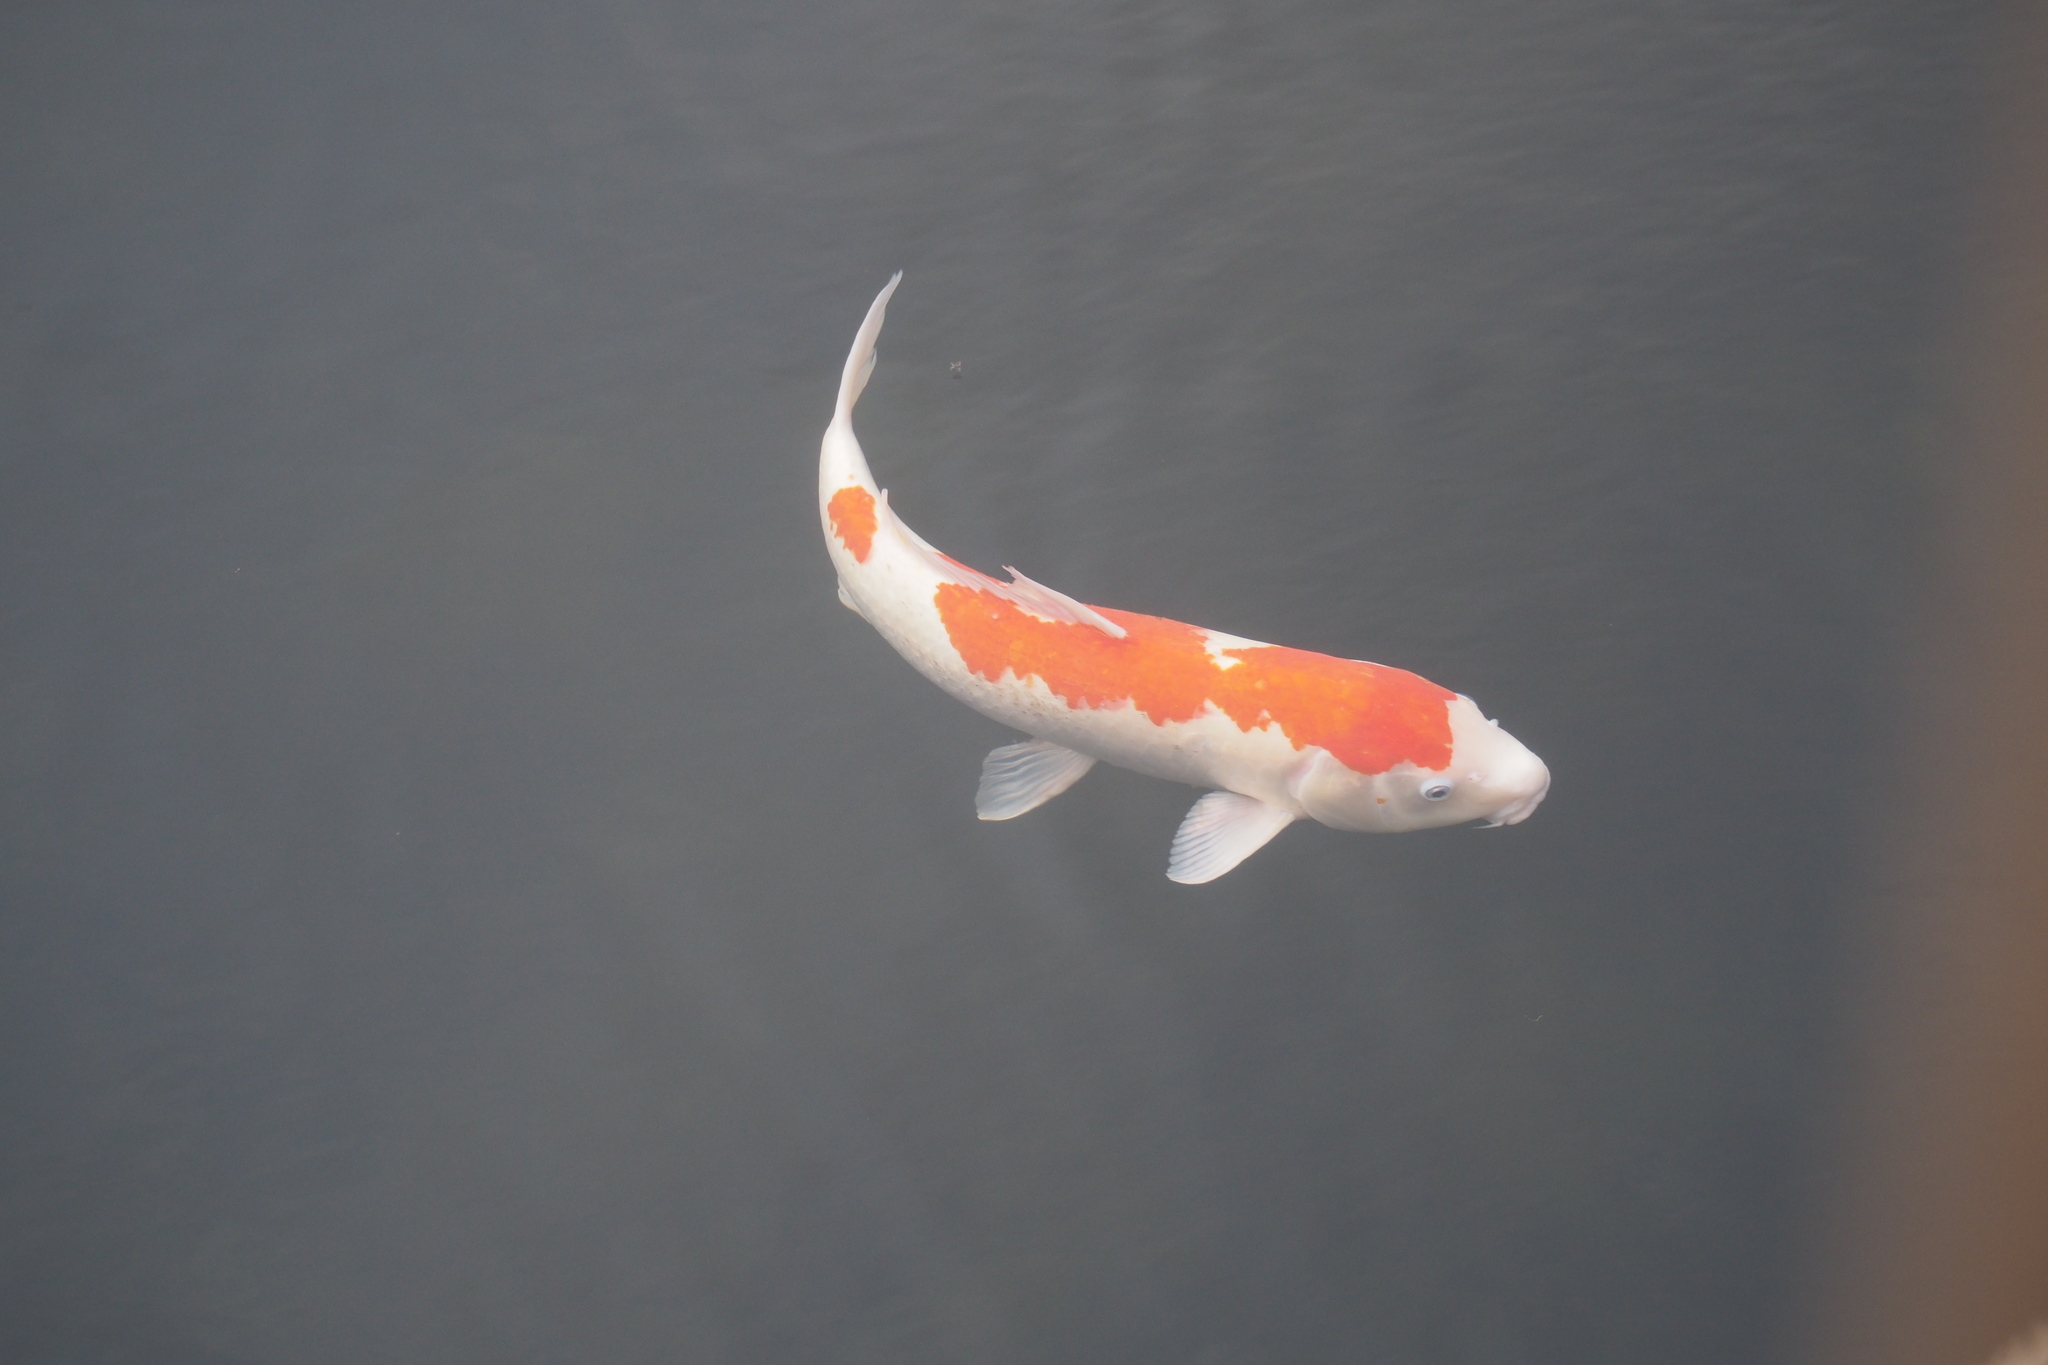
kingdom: Animalia
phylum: Chordata
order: Cypriniformes
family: Cyprinidae
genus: Cyprinus
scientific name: Cyprinus rubrofuscus
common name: Koi
